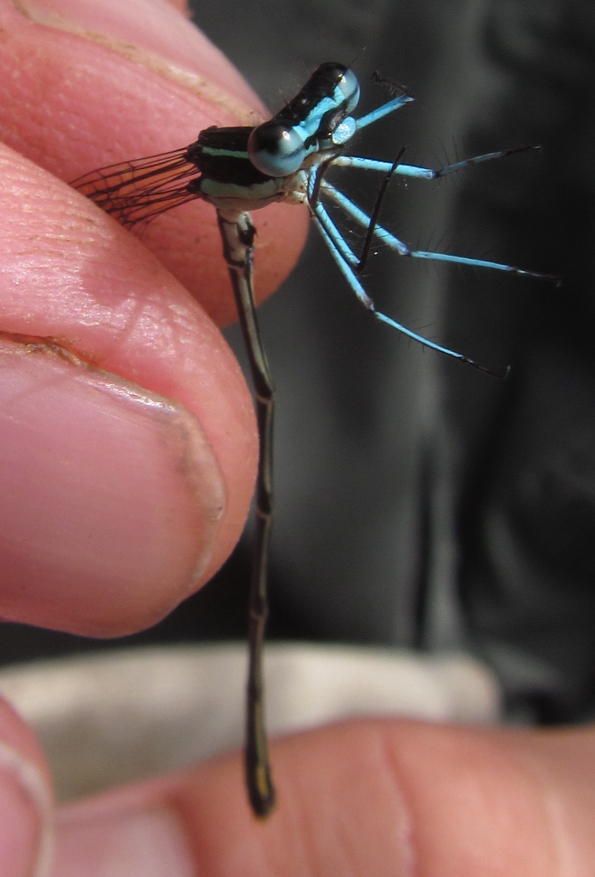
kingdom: Animalia
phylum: Arthropoda
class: Insecta
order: Odonata
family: Platycnemididae
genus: Allocnemis
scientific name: Allocnemis leucosticta
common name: Goldtail
